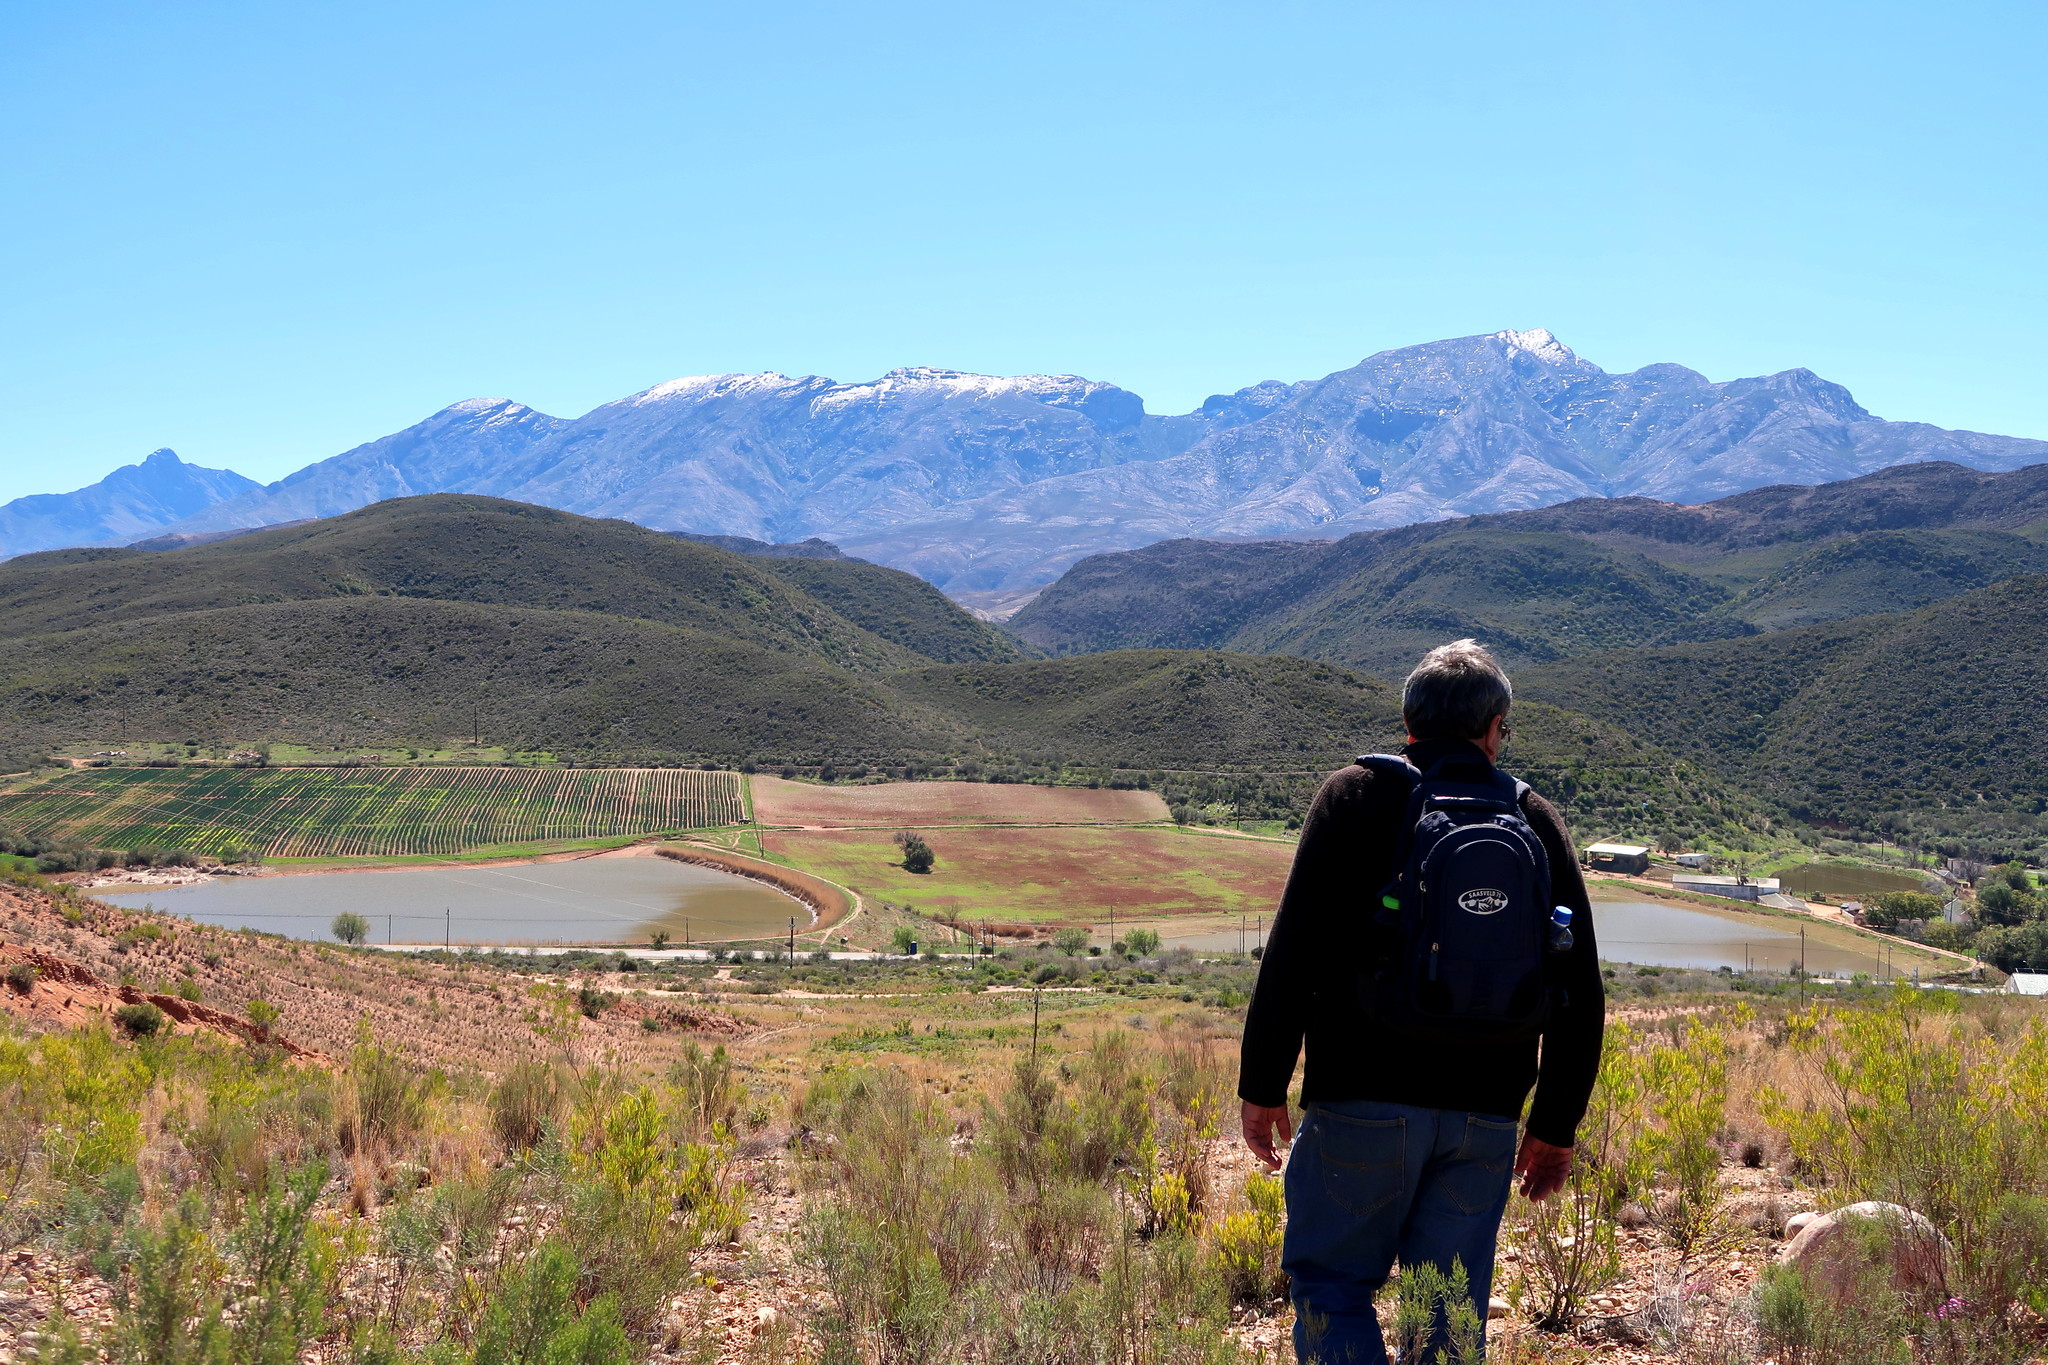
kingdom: Plantae
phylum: Tracheophyta
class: Magnoliopsida
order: Sapindales
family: Sapindaceae
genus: Dodonaea
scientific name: Dodonaea viscosa
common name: Hopbush
